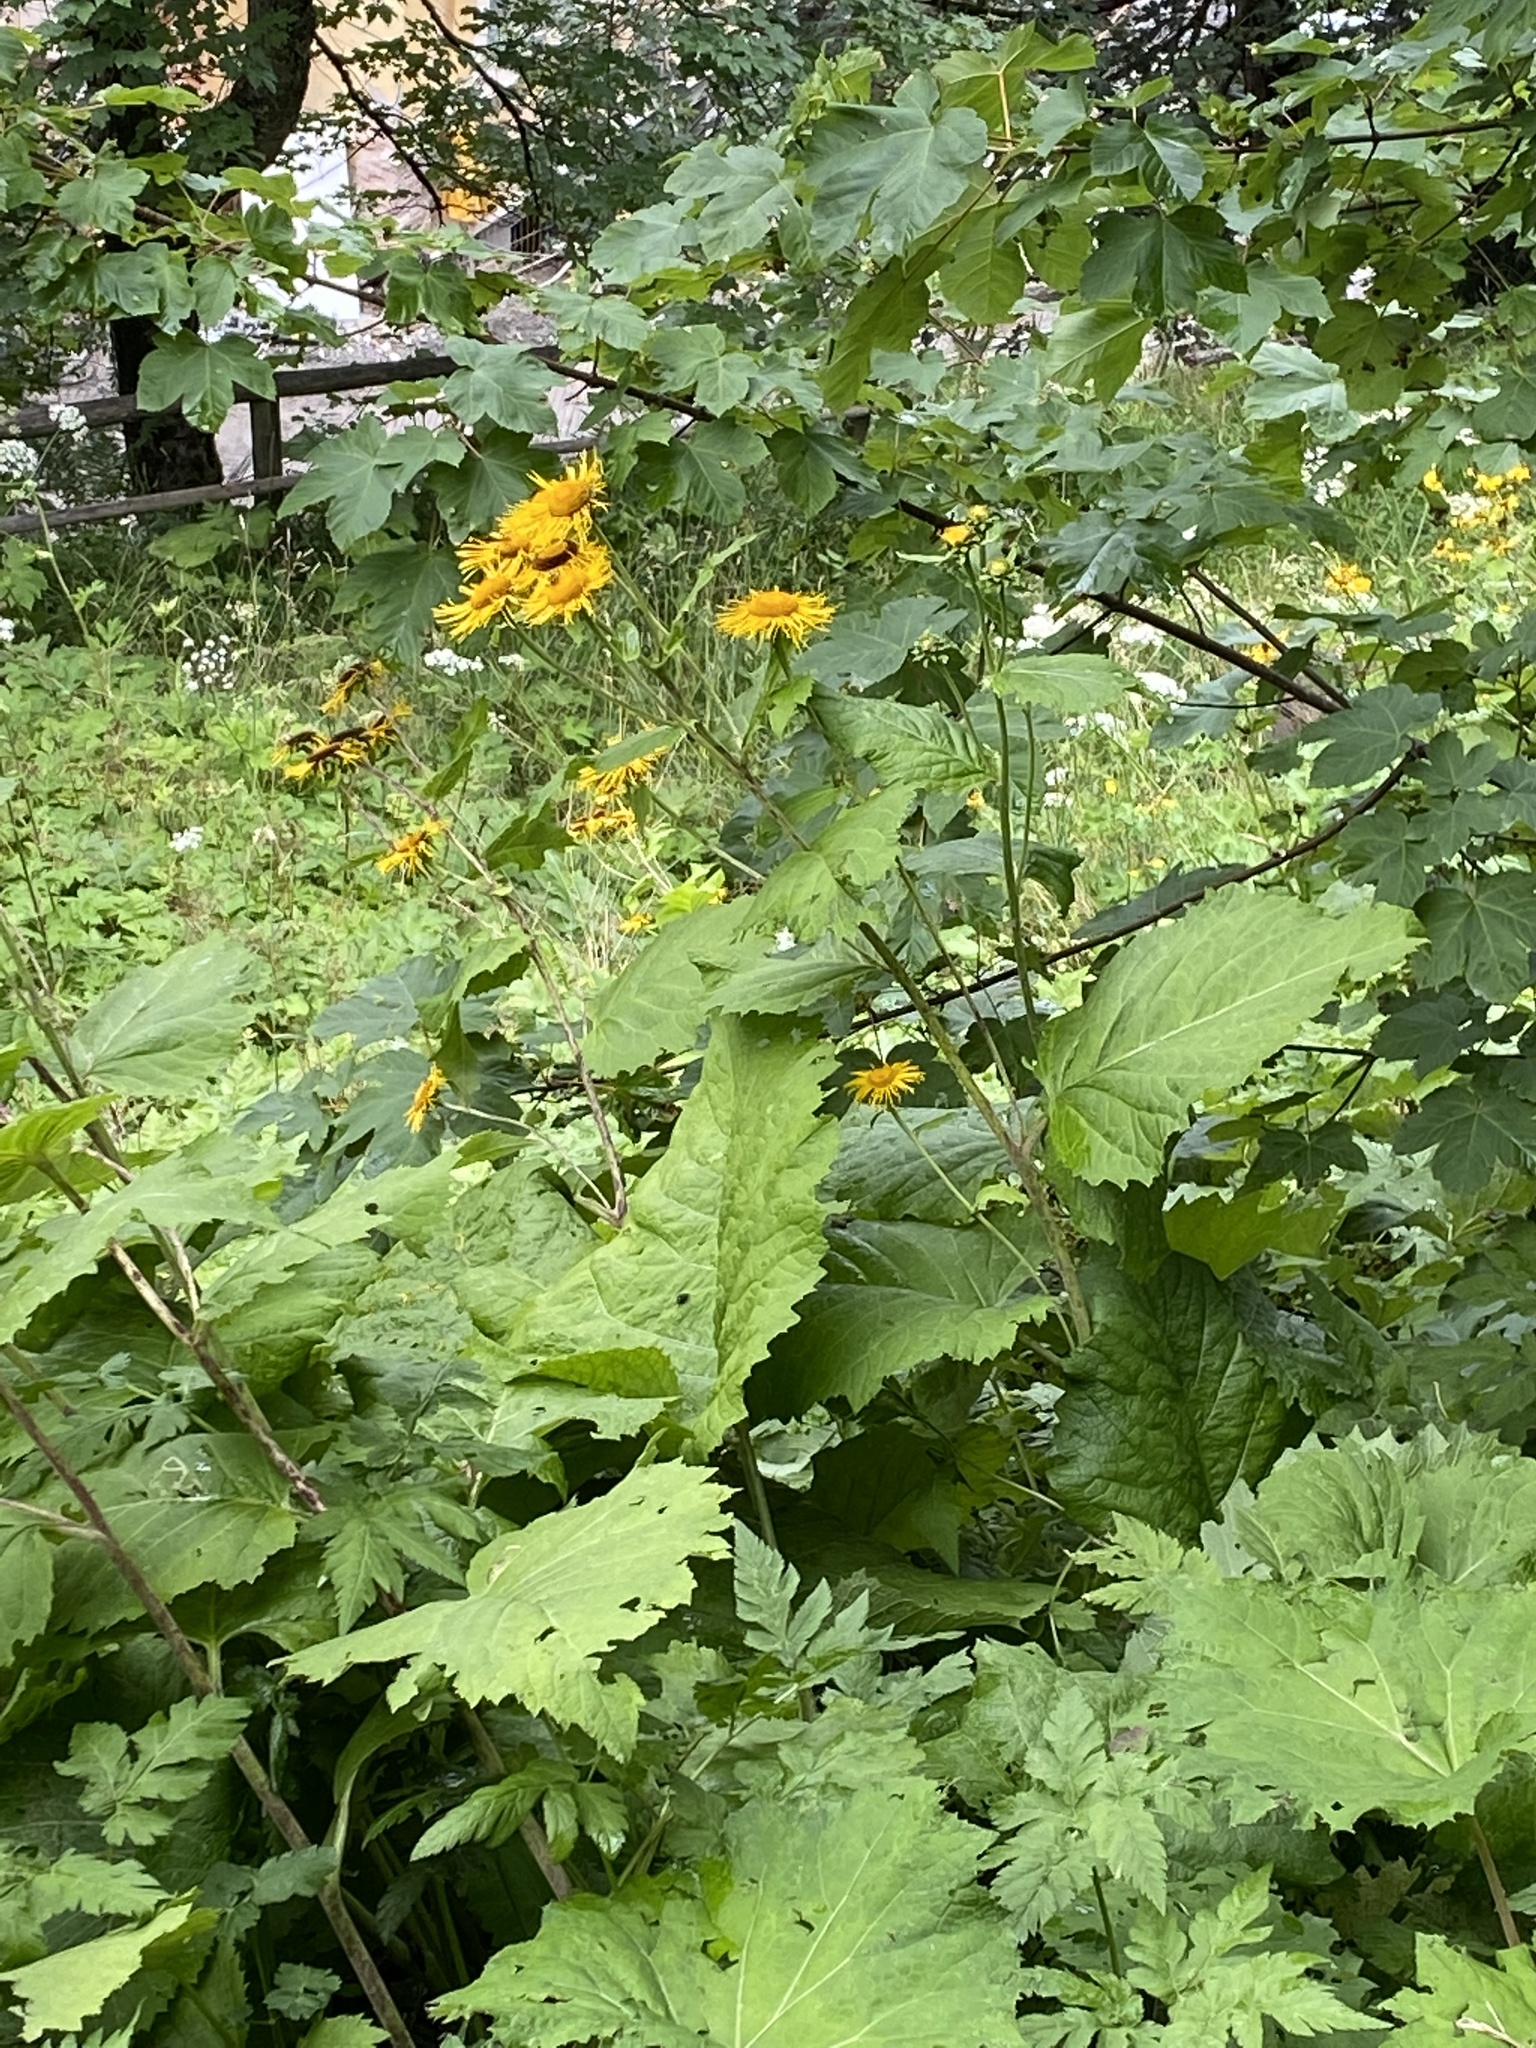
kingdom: Plantae
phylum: Tracheophyta
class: Magnoliopsida
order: Asterales
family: Asteraceae
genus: Telekia
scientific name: Telekia speciosa
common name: Yellow oxeye
